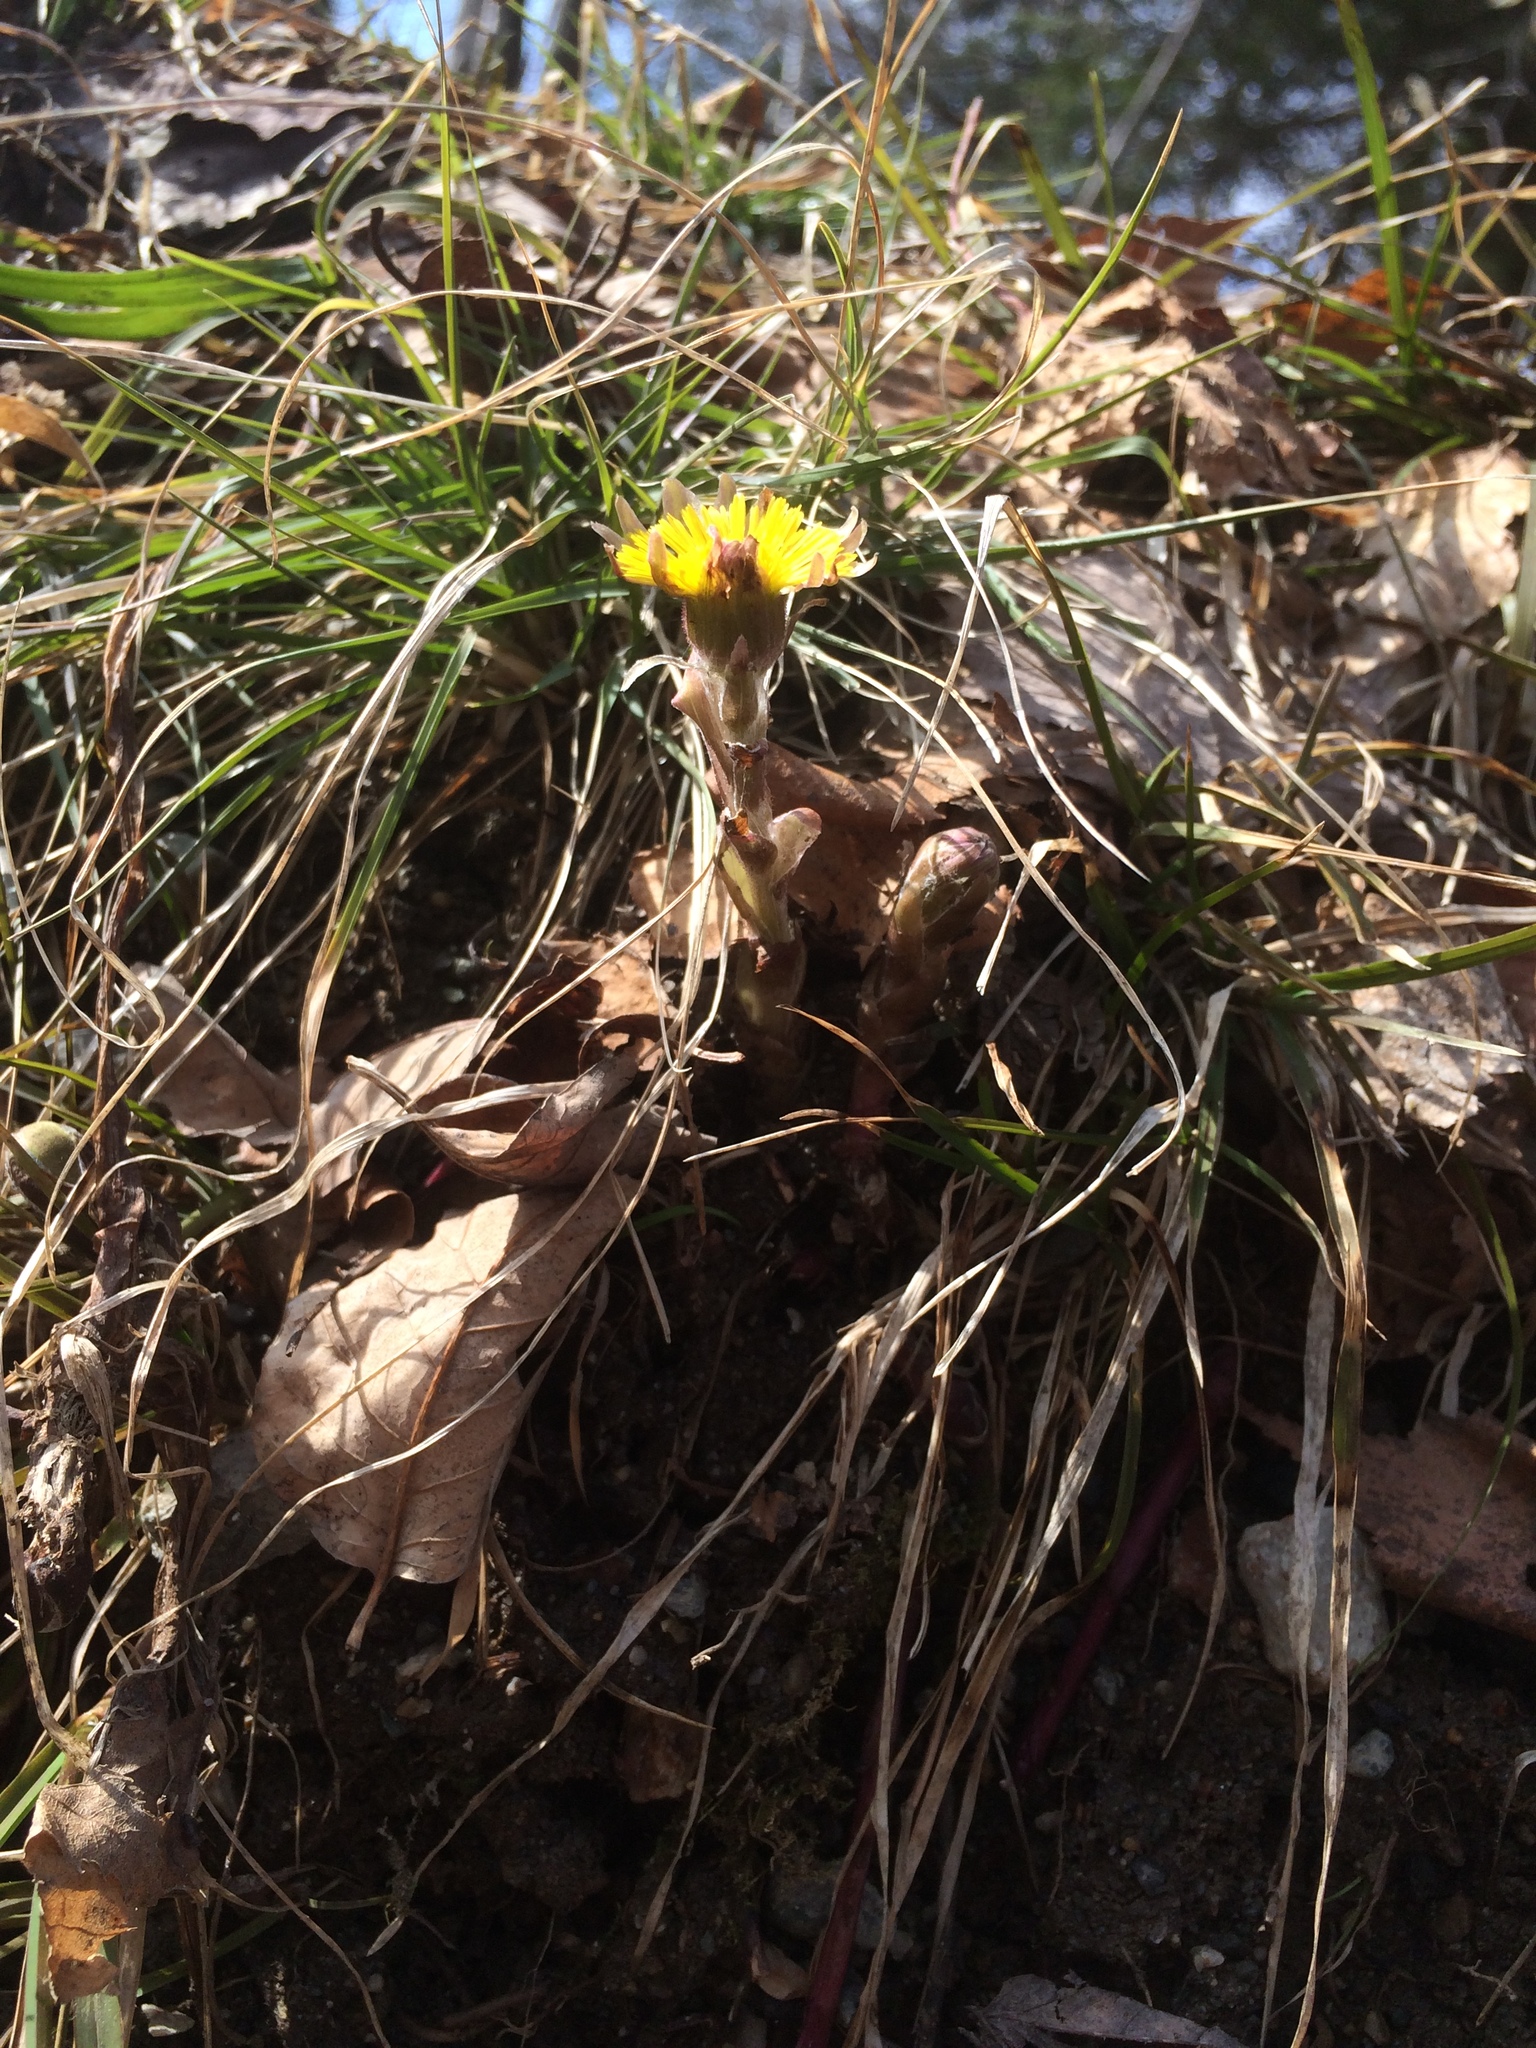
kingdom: Plantae
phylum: Tracheophyta
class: Magnoliopsida
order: Asterales
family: Asteraceae
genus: Tussilago
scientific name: Tussilago farfara
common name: Coltsfoot
